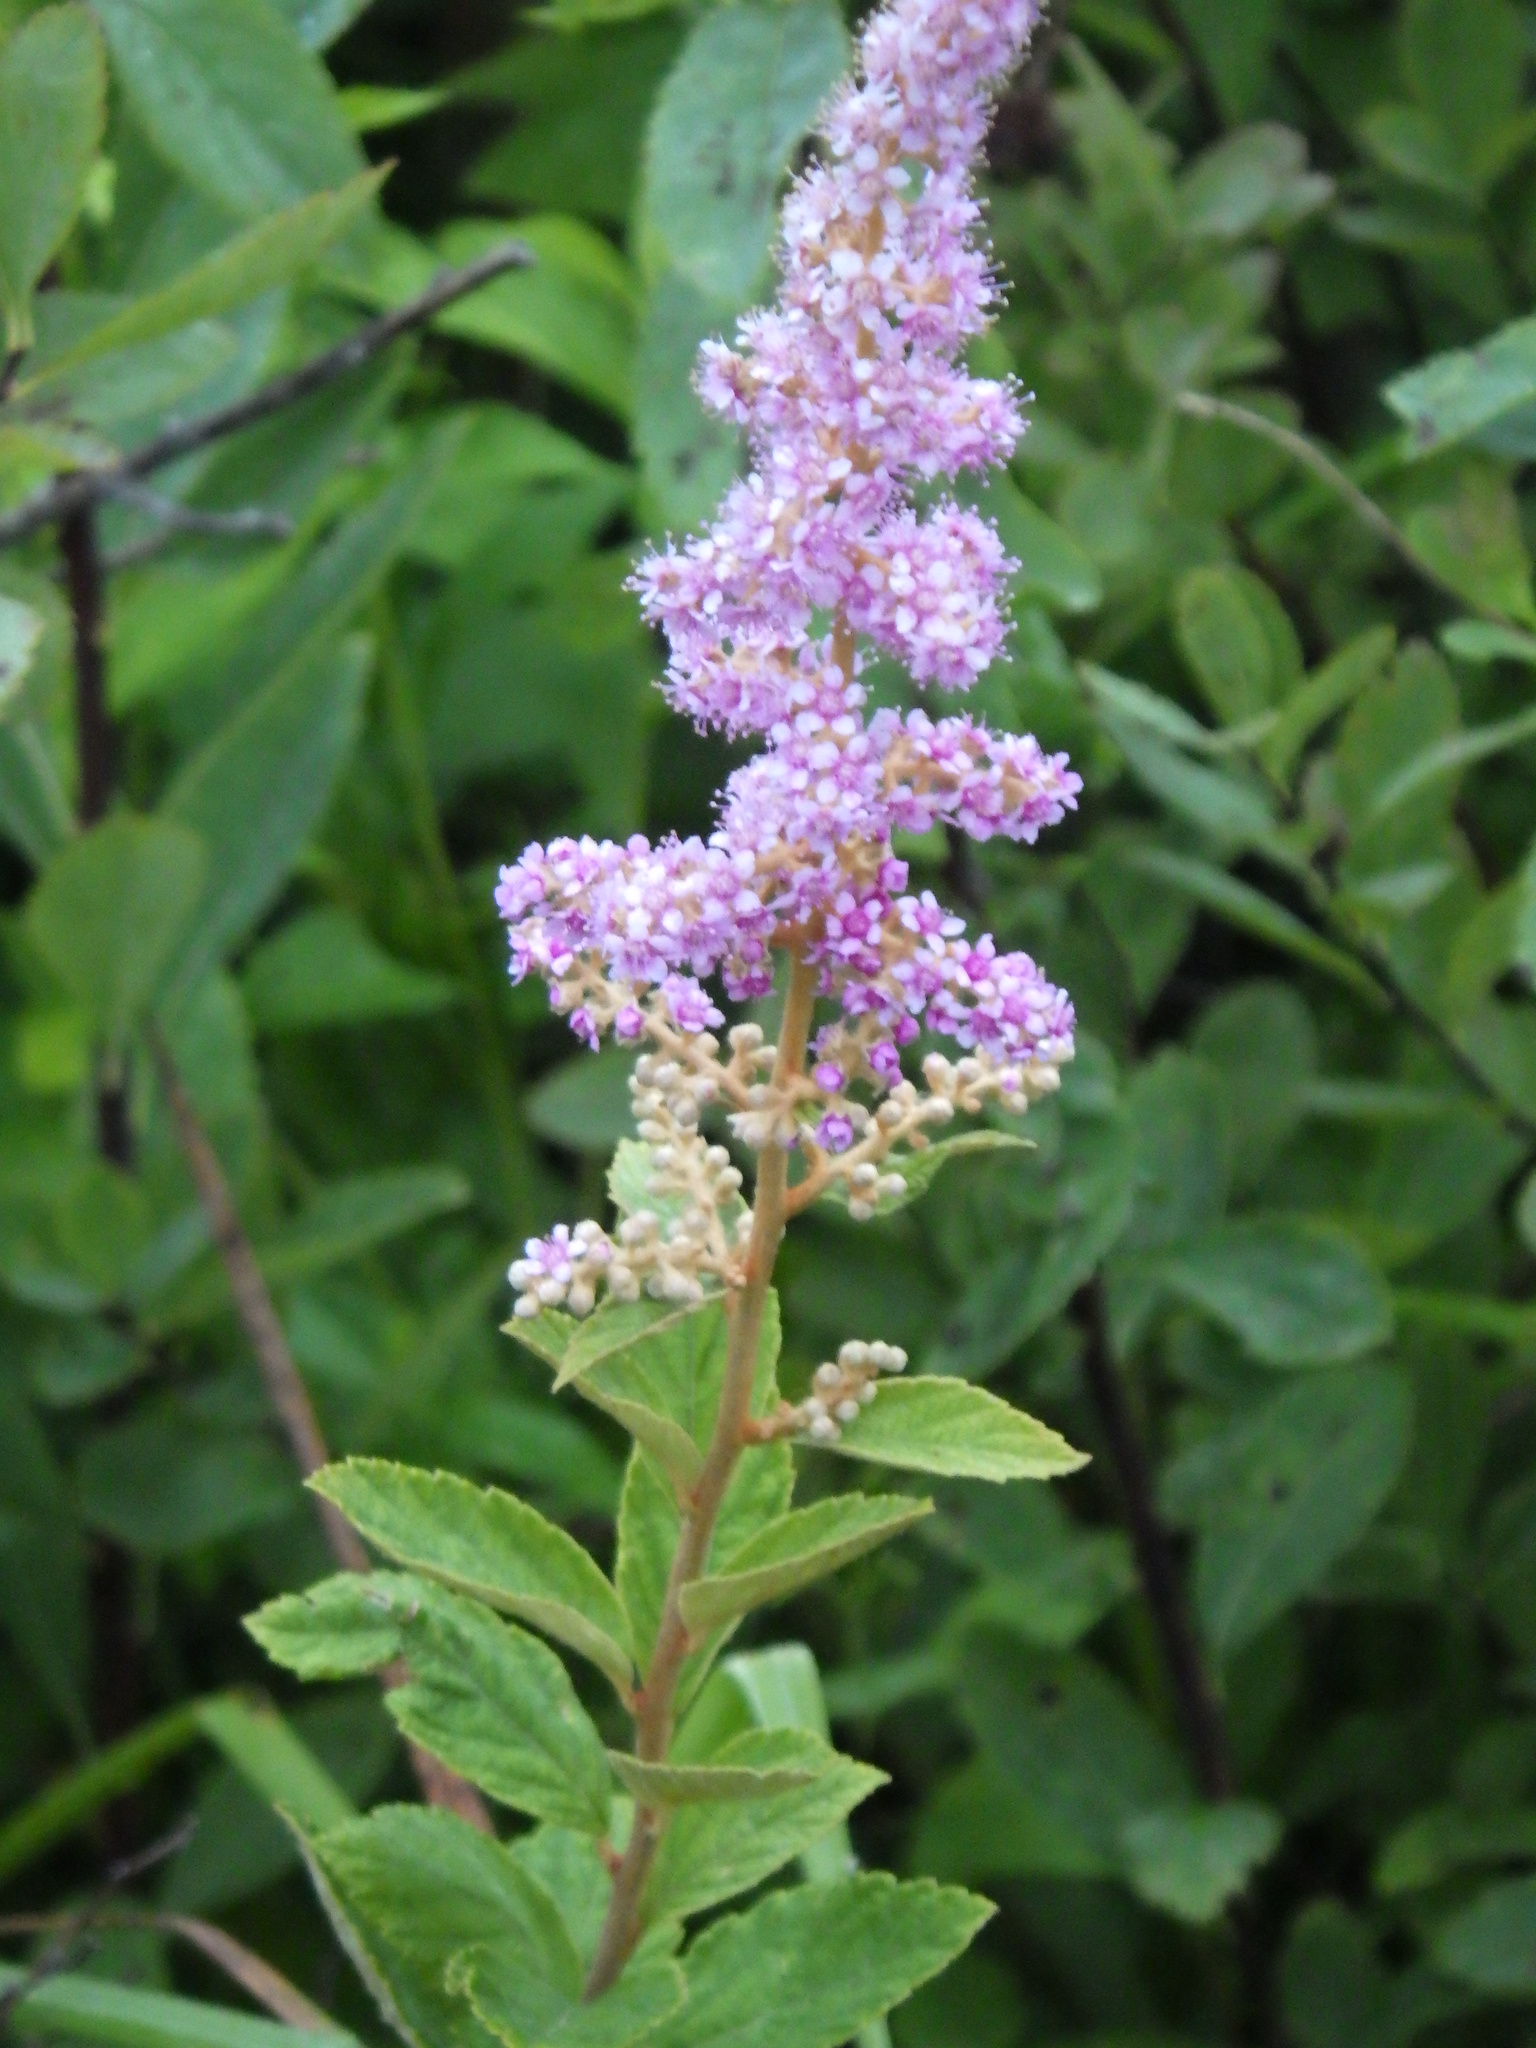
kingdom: Plantae
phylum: Tracheophyta
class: Magnoliopsida
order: Rosales
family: Rosaceae
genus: Spiraea
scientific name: Spiraea tomentosa
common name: Hardhack
